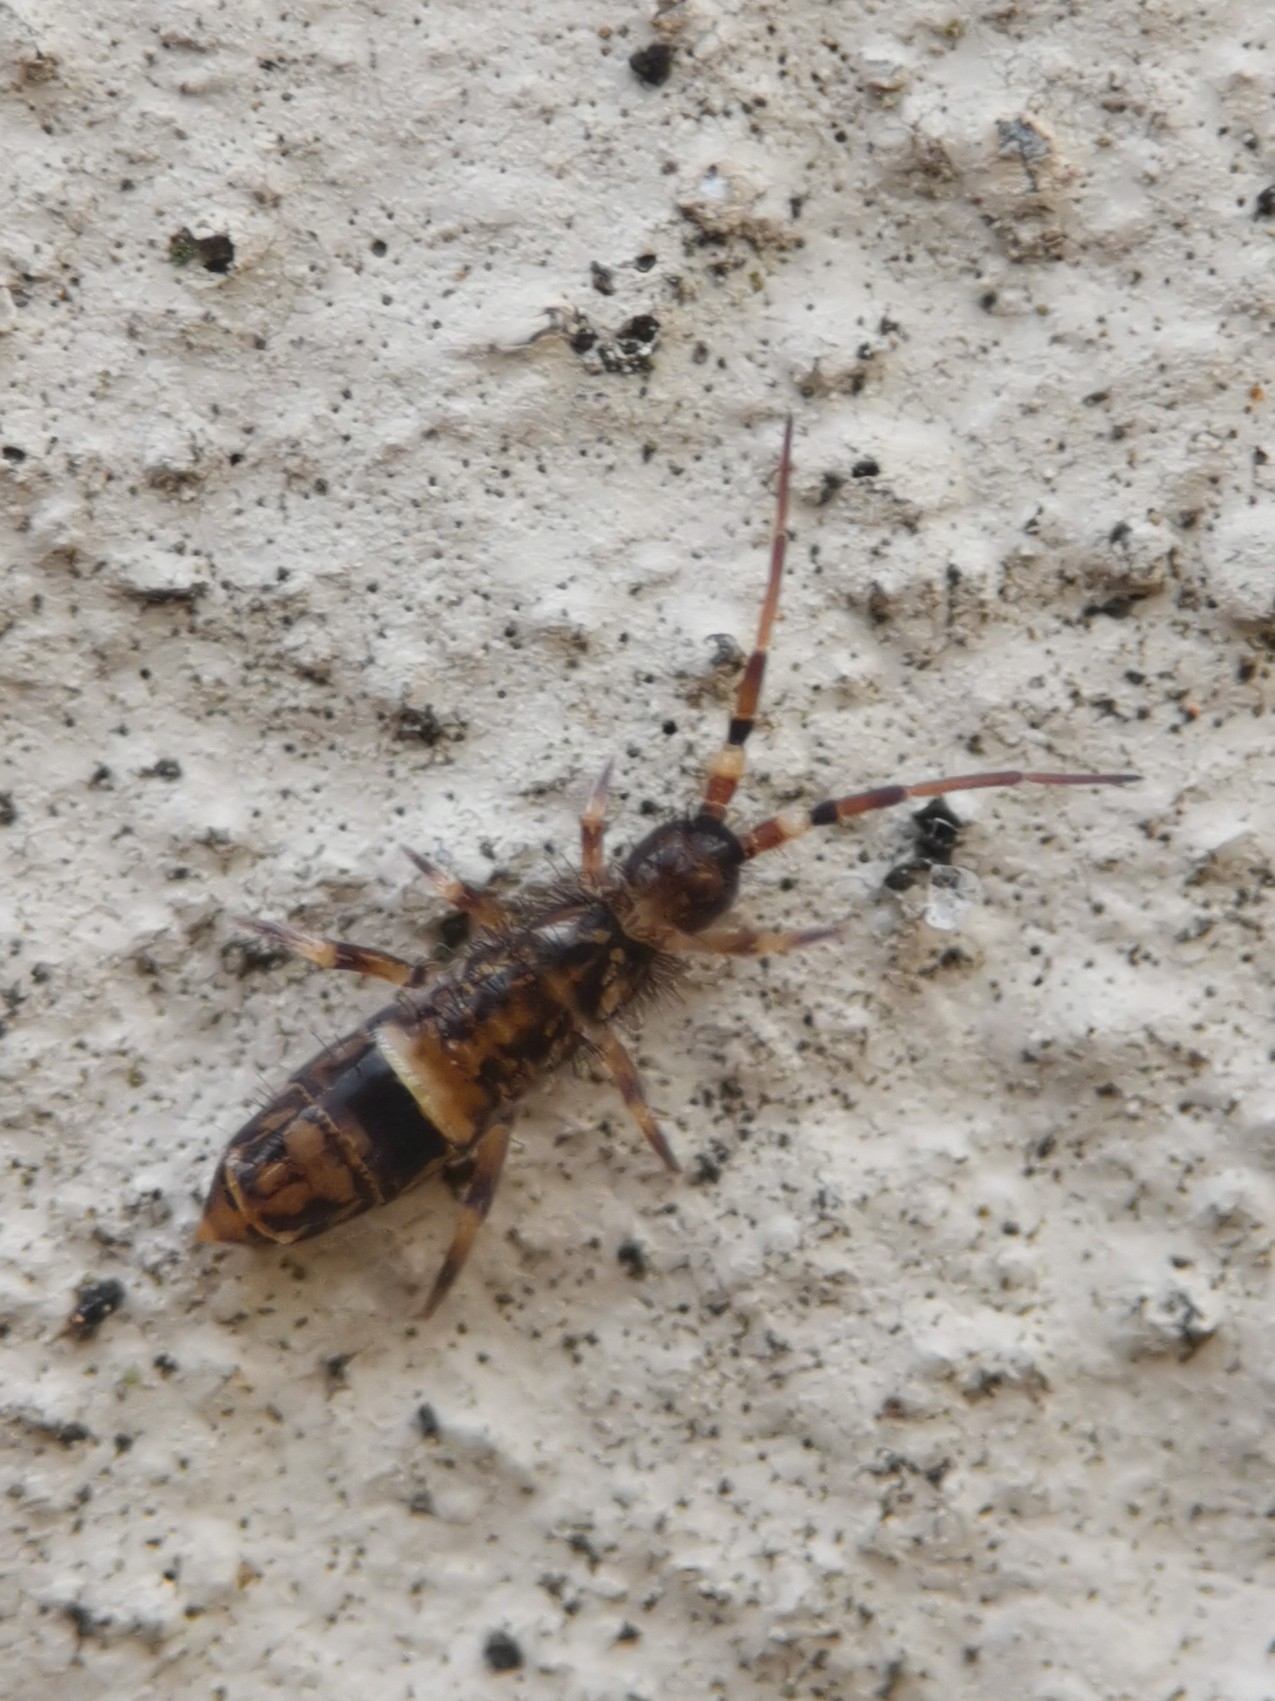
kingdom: Animalia
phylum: Arthropoda
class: Collembola
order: Entomobryomorpha
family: Orchesellidae
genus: Orchesella
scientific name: Orchesella cincta
